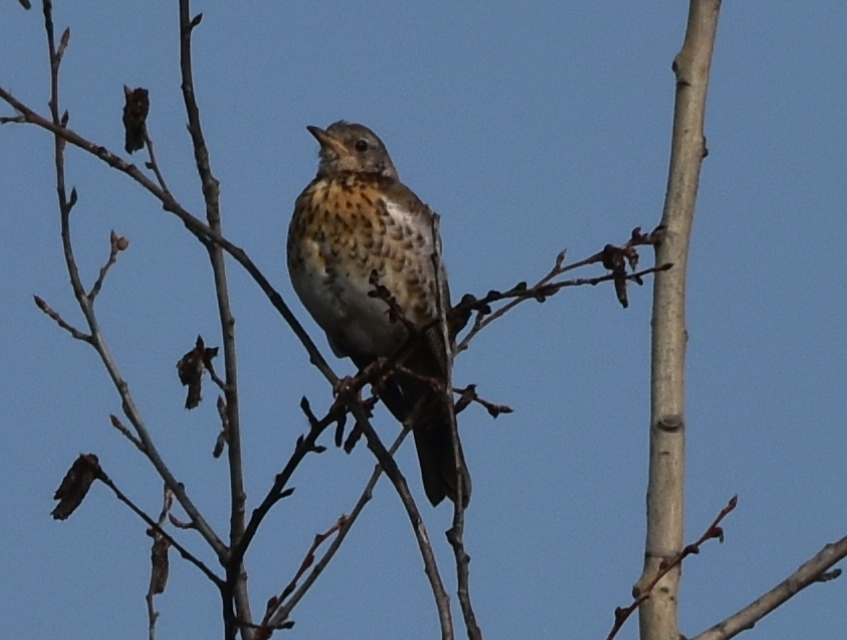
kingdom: Animalia
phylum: Chordata
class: Aves
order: Passeriformes
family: Turdidae
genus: Turdus
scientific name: Turdus pilaris
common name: Fieldfare
